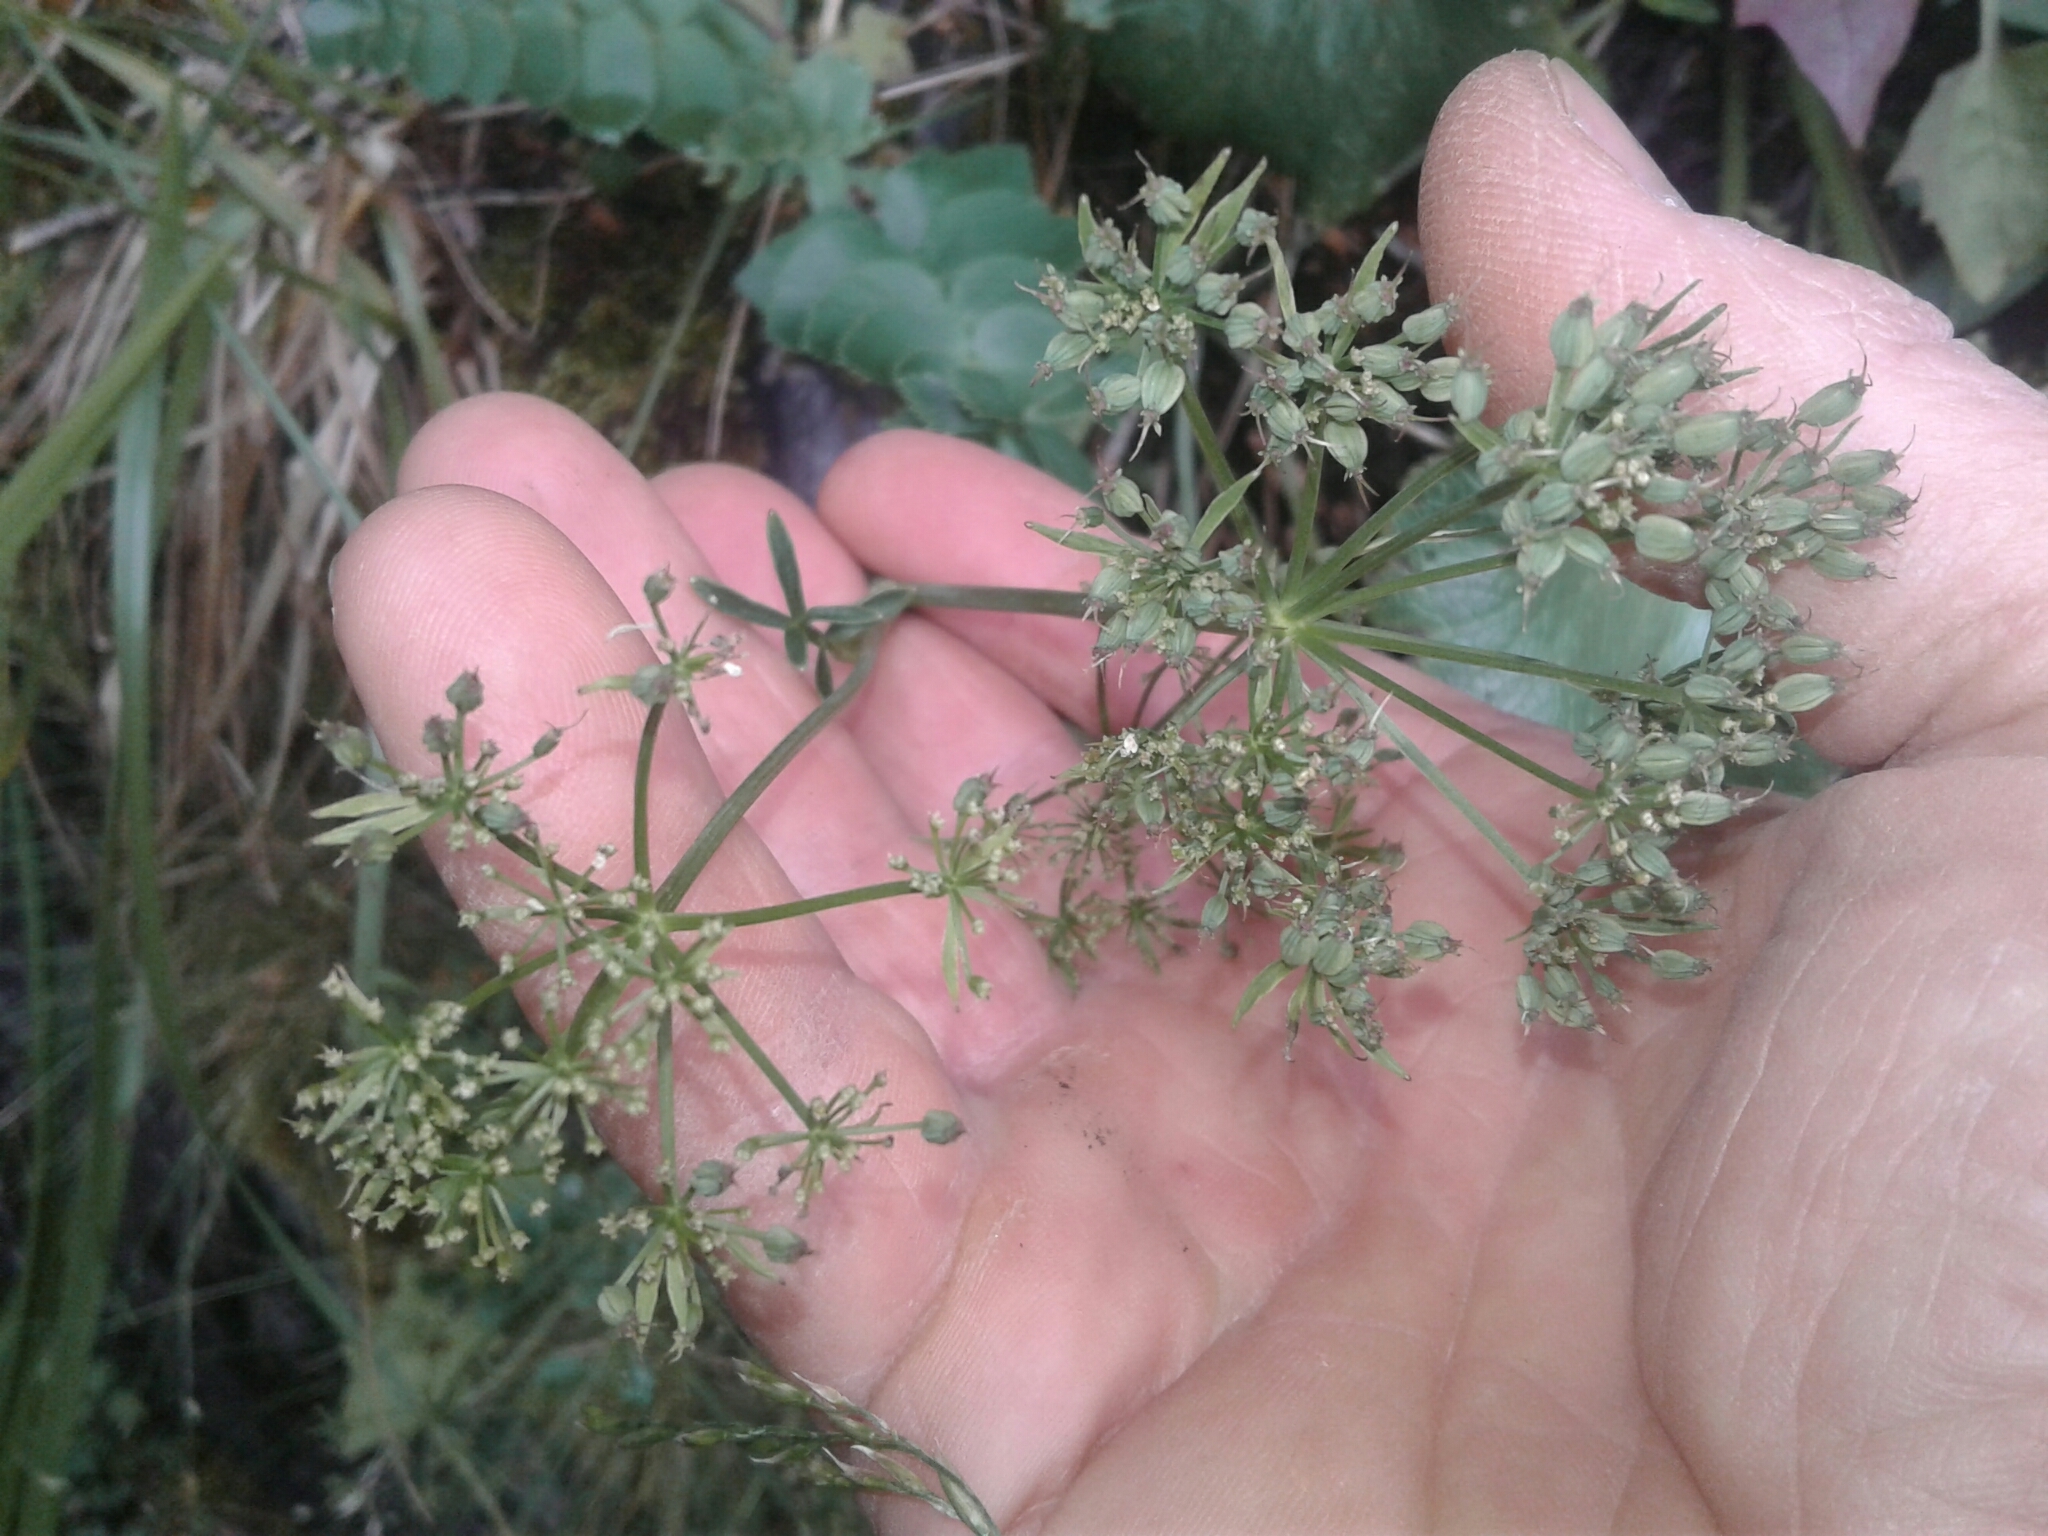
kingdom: Plantae
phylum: Tracheophyta
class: Magnoliopsida
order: Apiales
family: Apiaceae
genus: Gingidia
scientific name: Gingidia montana
